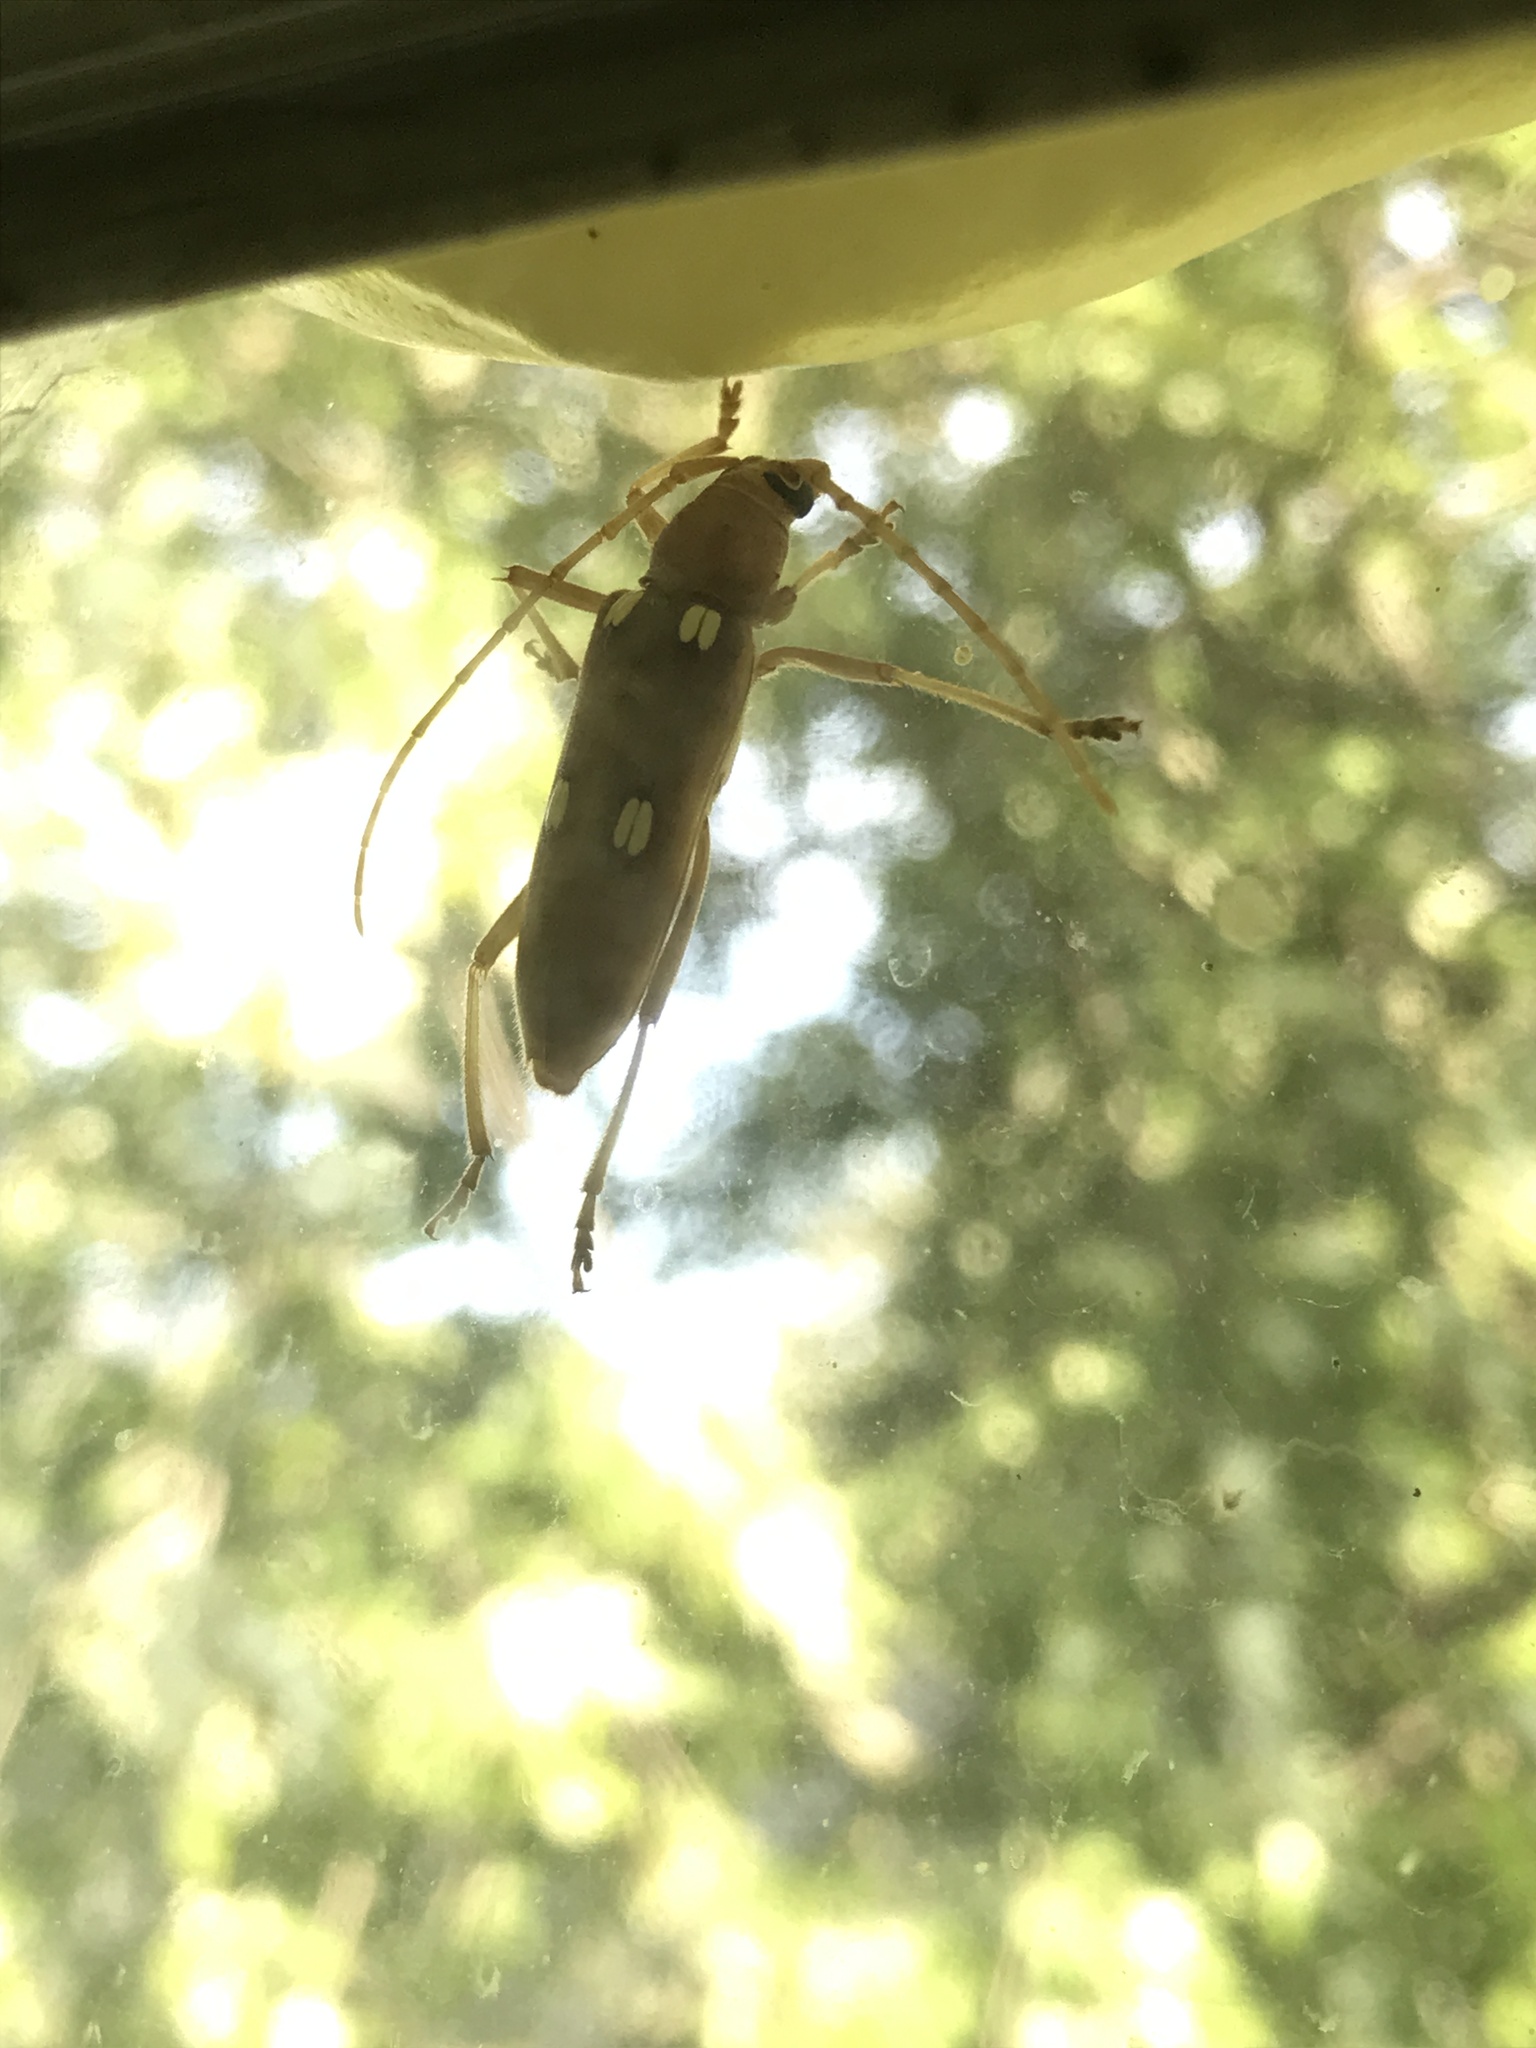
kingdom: Animalia
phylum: Arthropoda
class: Insecta
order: Coleoptera
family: Cerambycidae
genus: Eburia
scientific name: Eburia quadrigeminata
